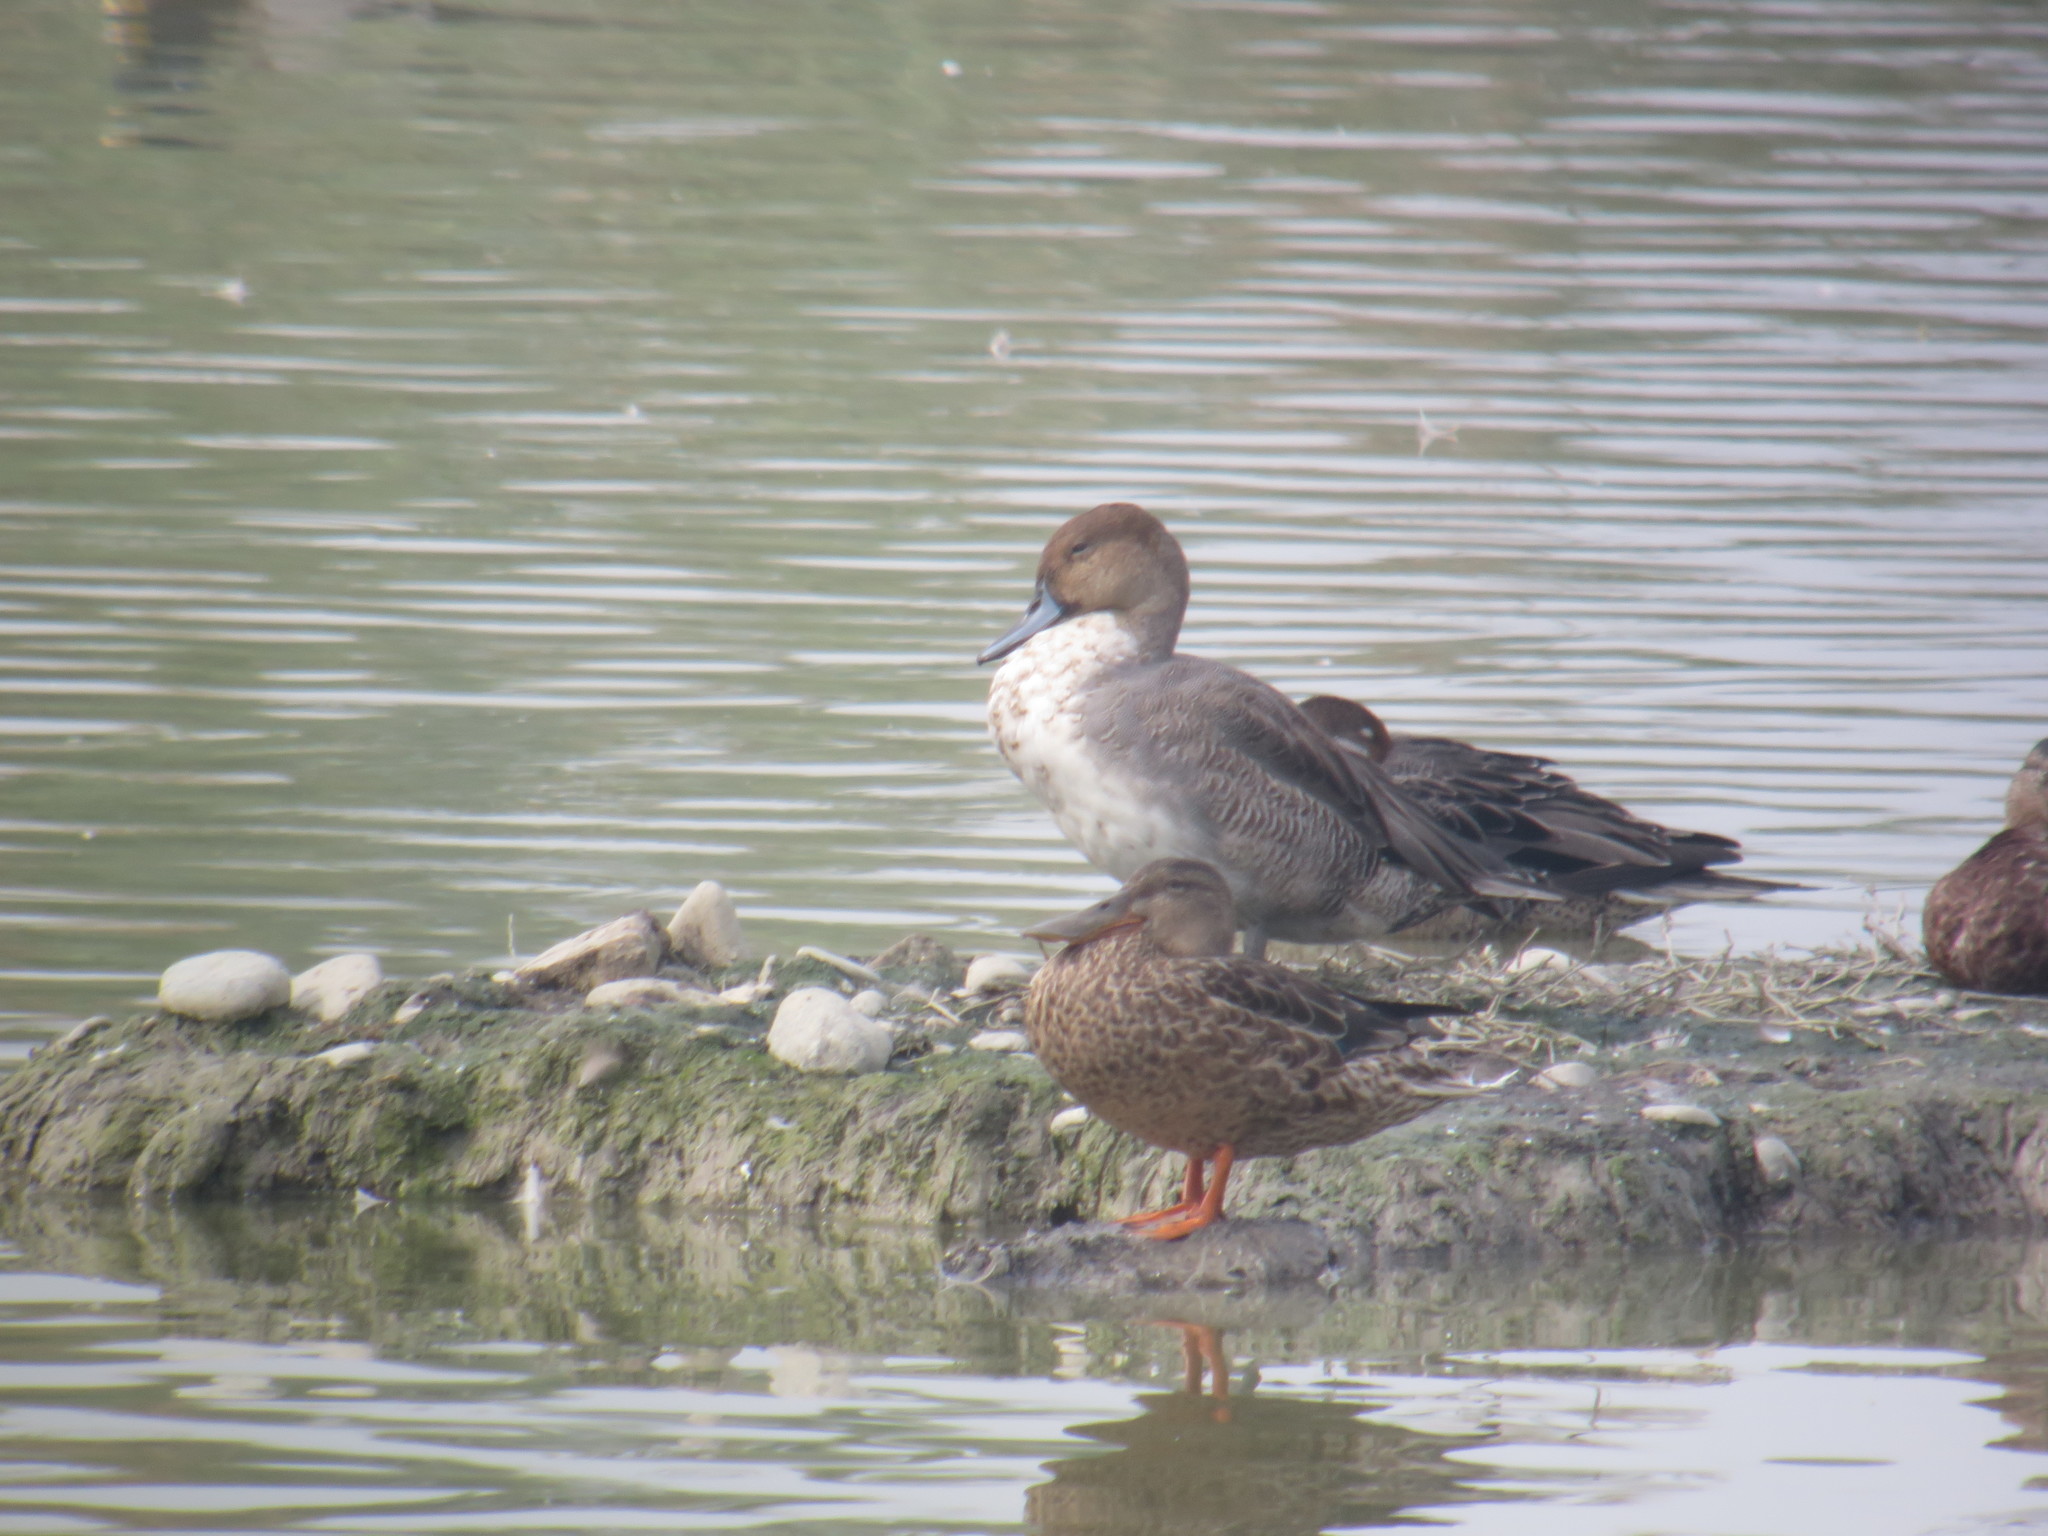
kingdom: Animalia
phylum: Chordata
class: Aves
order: Anseriformes
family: Anatidae
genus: Anas
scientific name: Anas acuta
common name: Northern pintail
